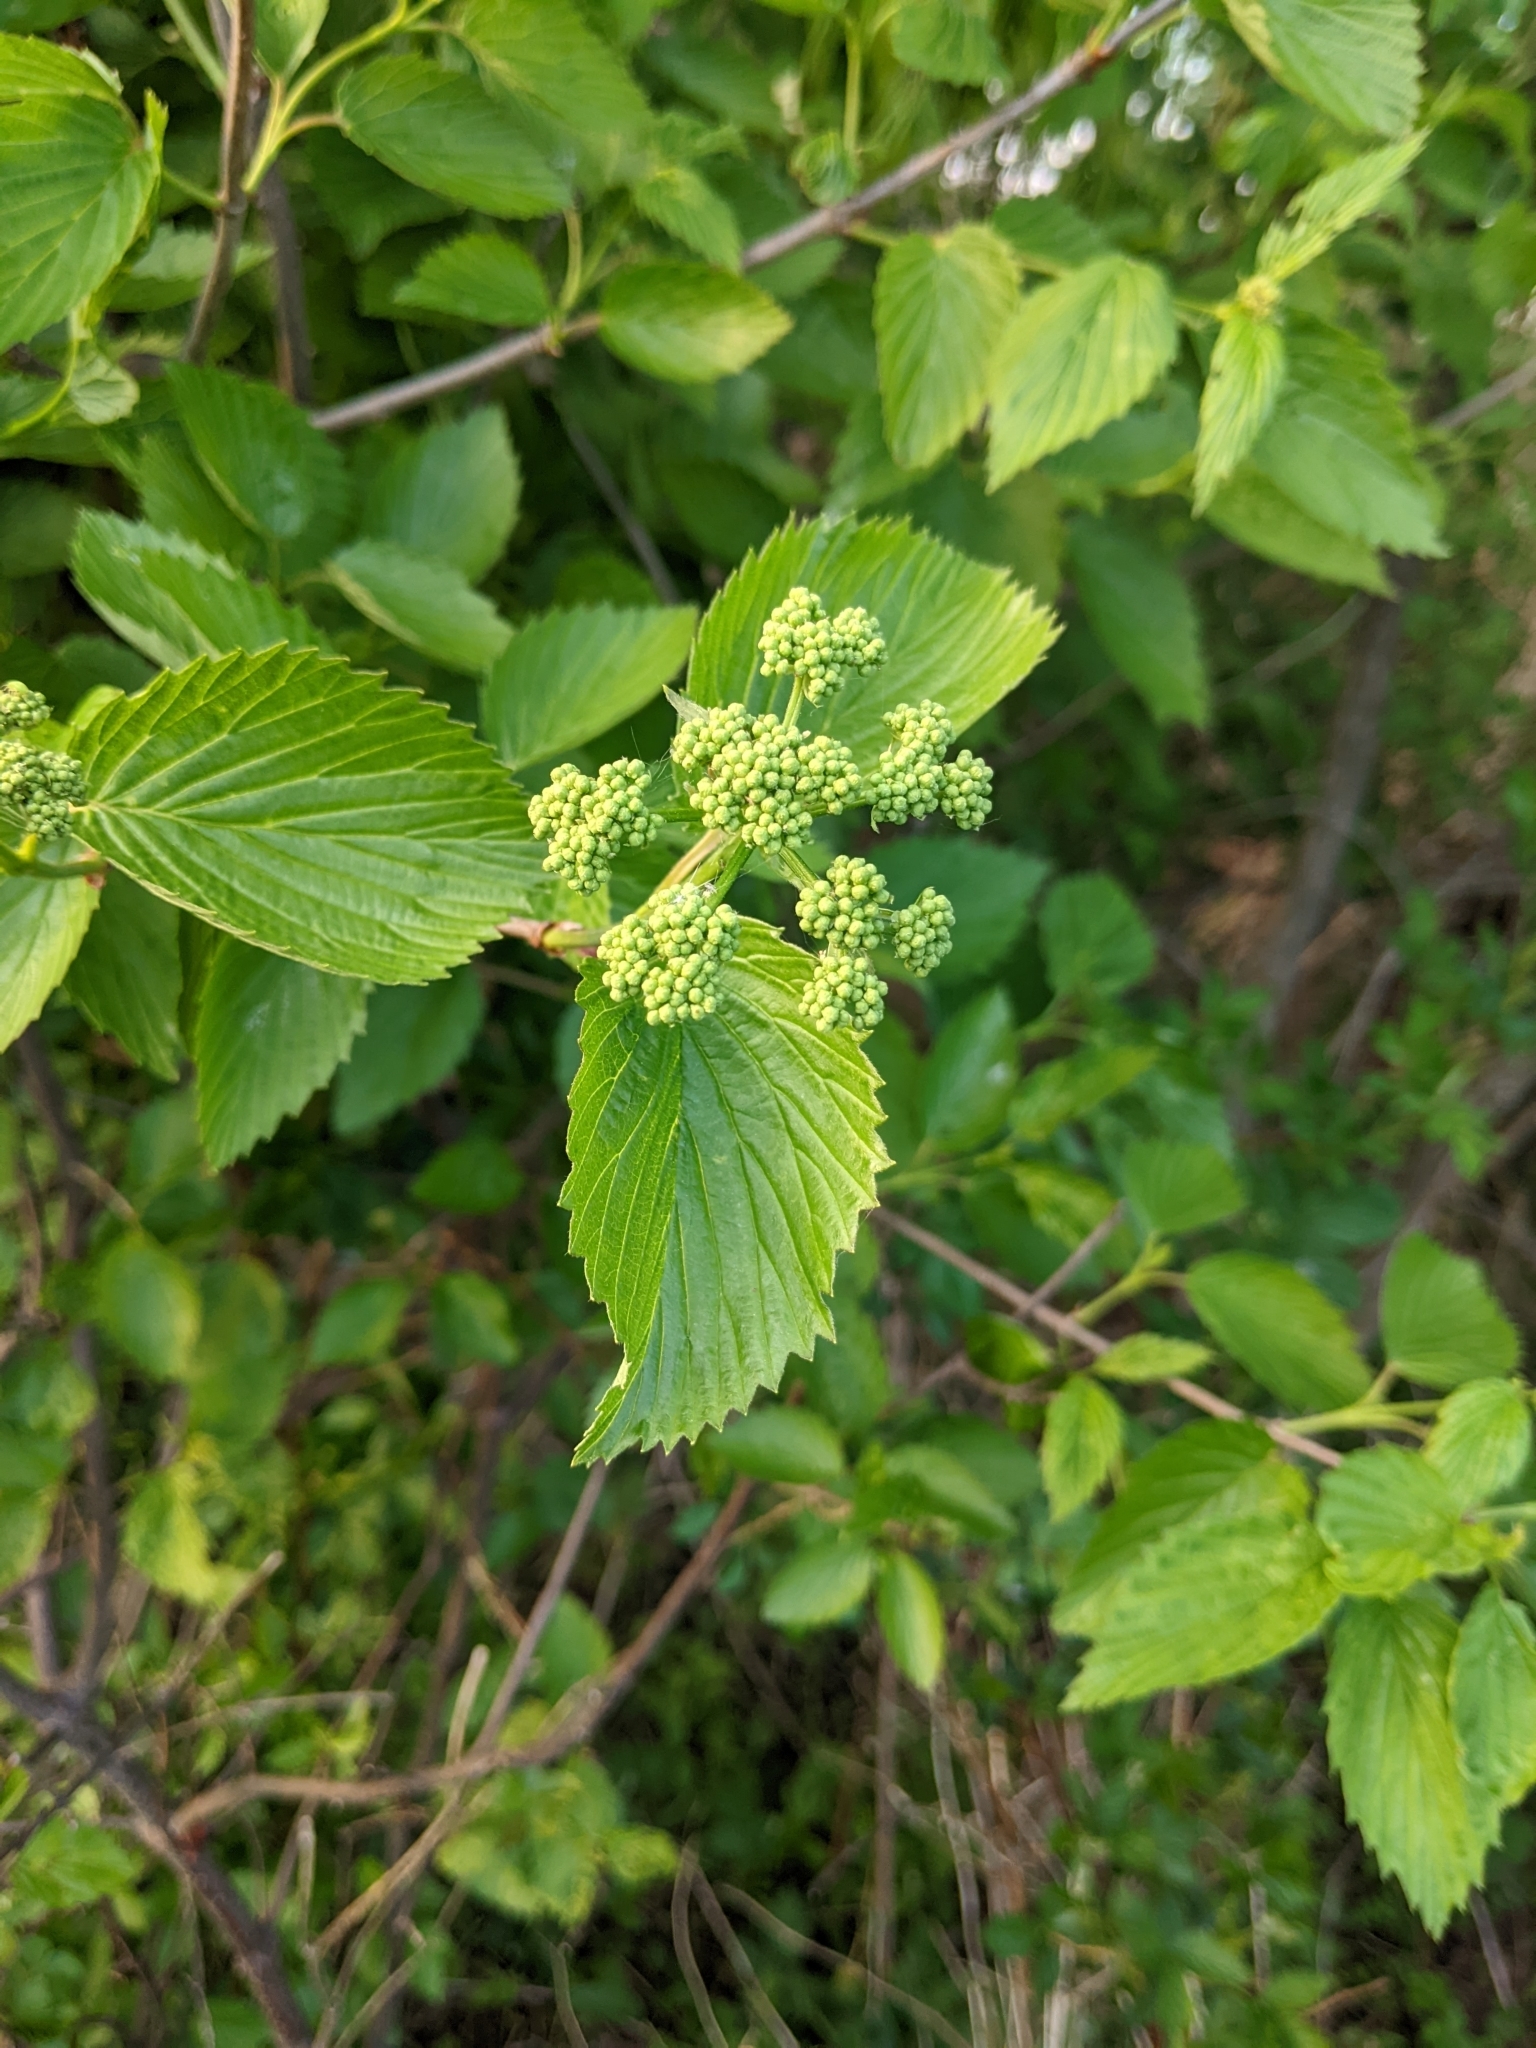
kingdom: Plantae
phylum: Tracheophyta
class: Magnoliopsida
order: Dipsacales
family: Viburnaceae
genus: Viburnum
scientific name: Viburnum dentatum
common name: Arrow-wood
